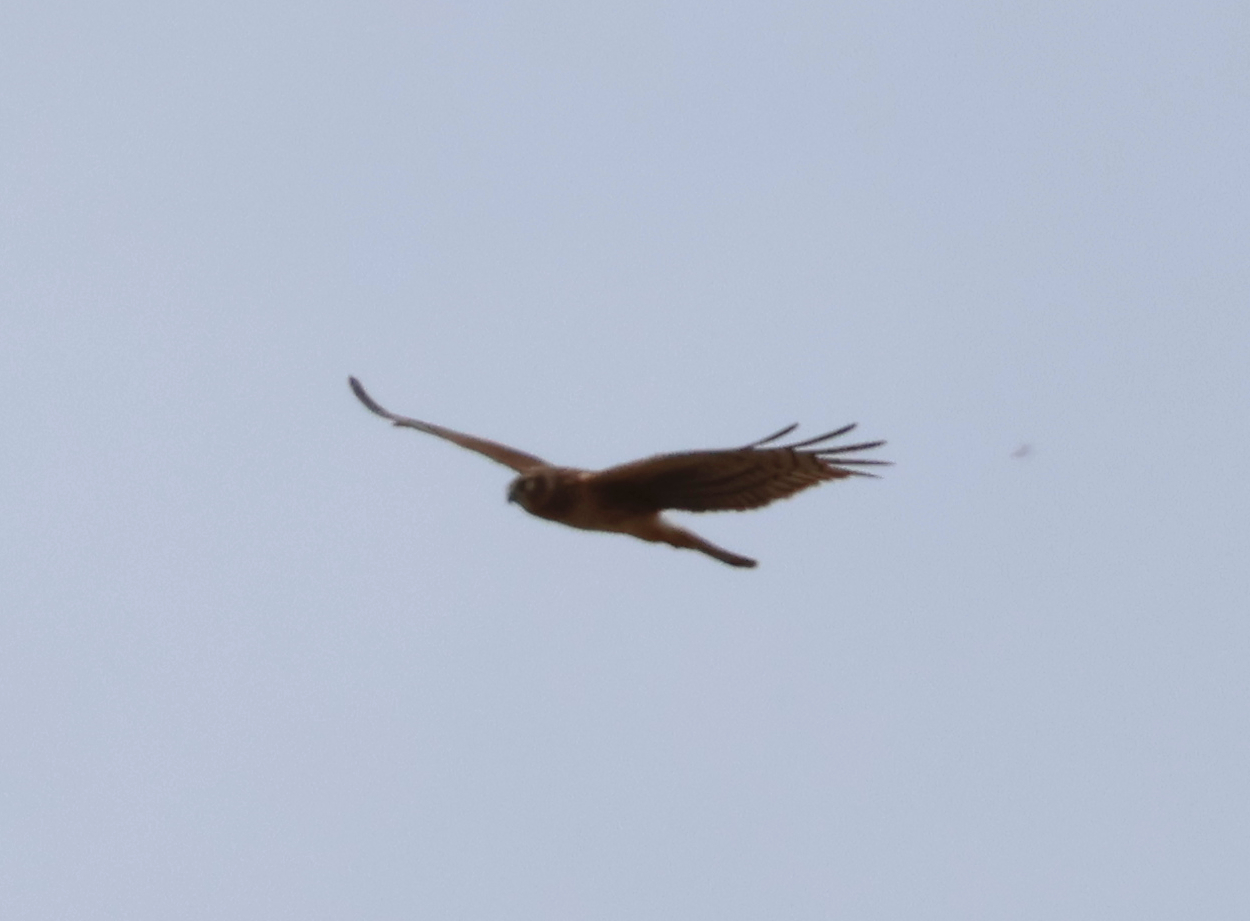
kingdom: Animalia
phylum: Chordata
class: Aves
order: Accipitriformes
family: Accipitridae
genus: Circus
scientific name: Circus cyaneus
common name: Hen harrier
